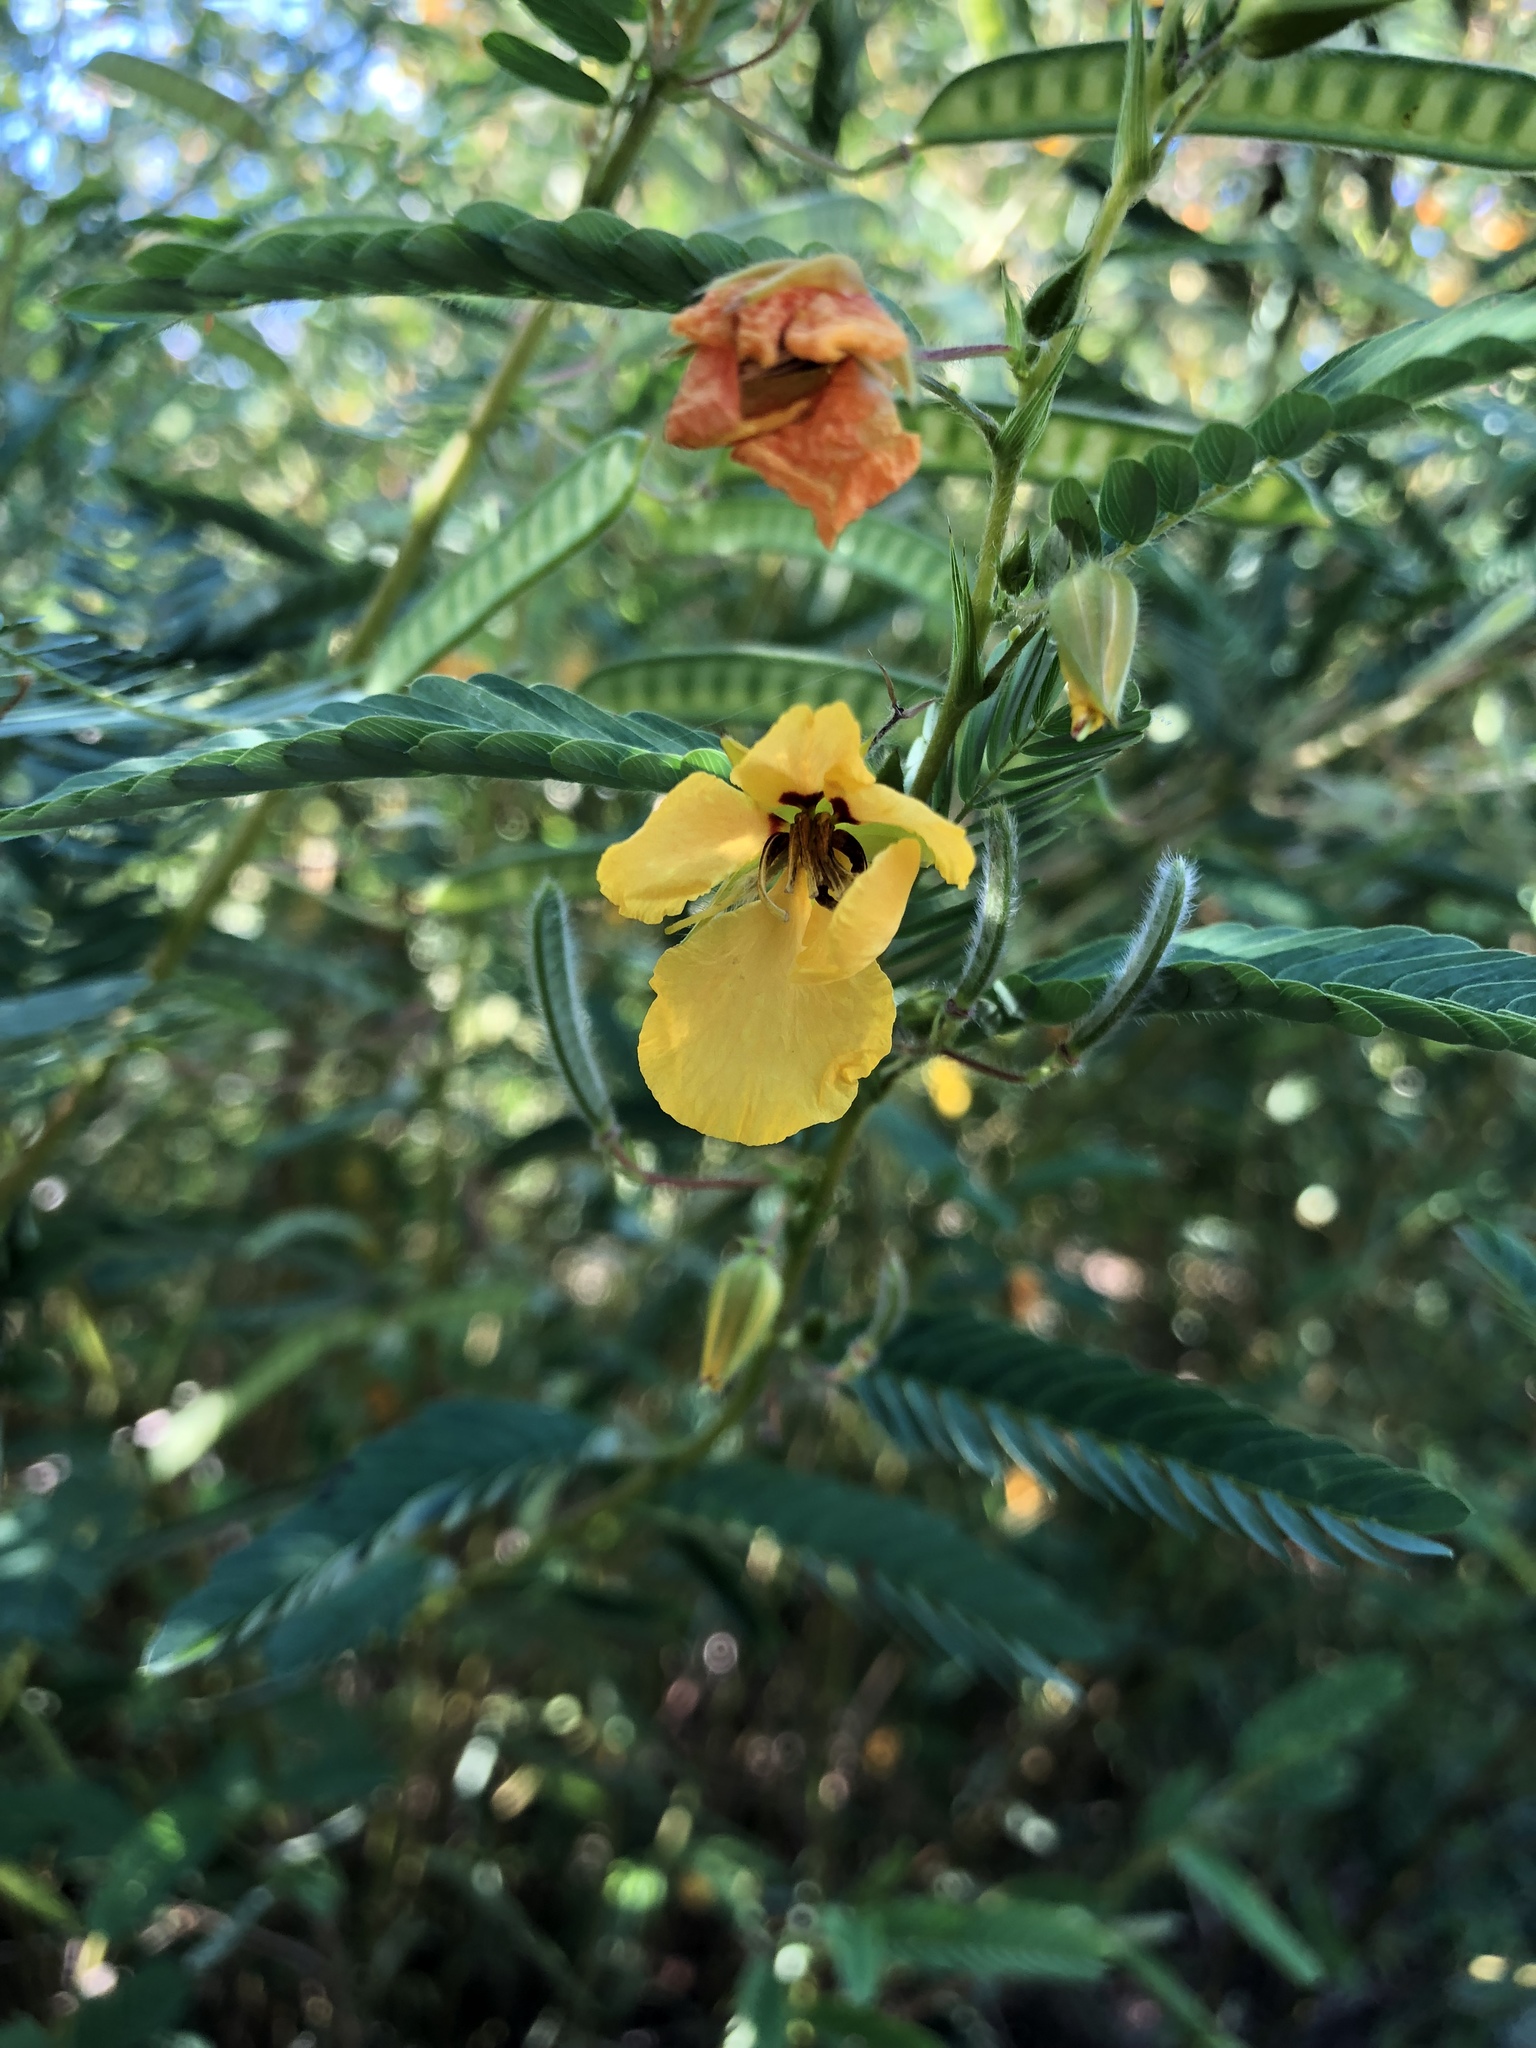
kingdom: Plantae
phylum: Tracheophyta
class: Magnoliopsida
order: Fabales
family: Fabaceae
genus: Chamaecrista
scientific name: Chamaecrista fasciculata
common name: Golden cassia
